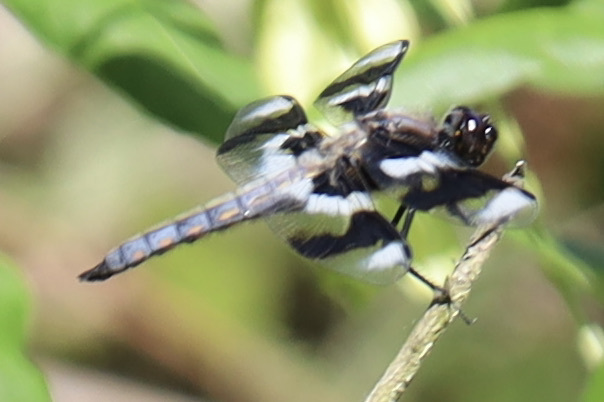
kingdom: Animalia
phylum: Arthropoda
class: Insecta
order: Odonata
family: Libellulidae
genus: Libellula
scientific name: Libellula forensis
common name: Eight-spotted skimmer
